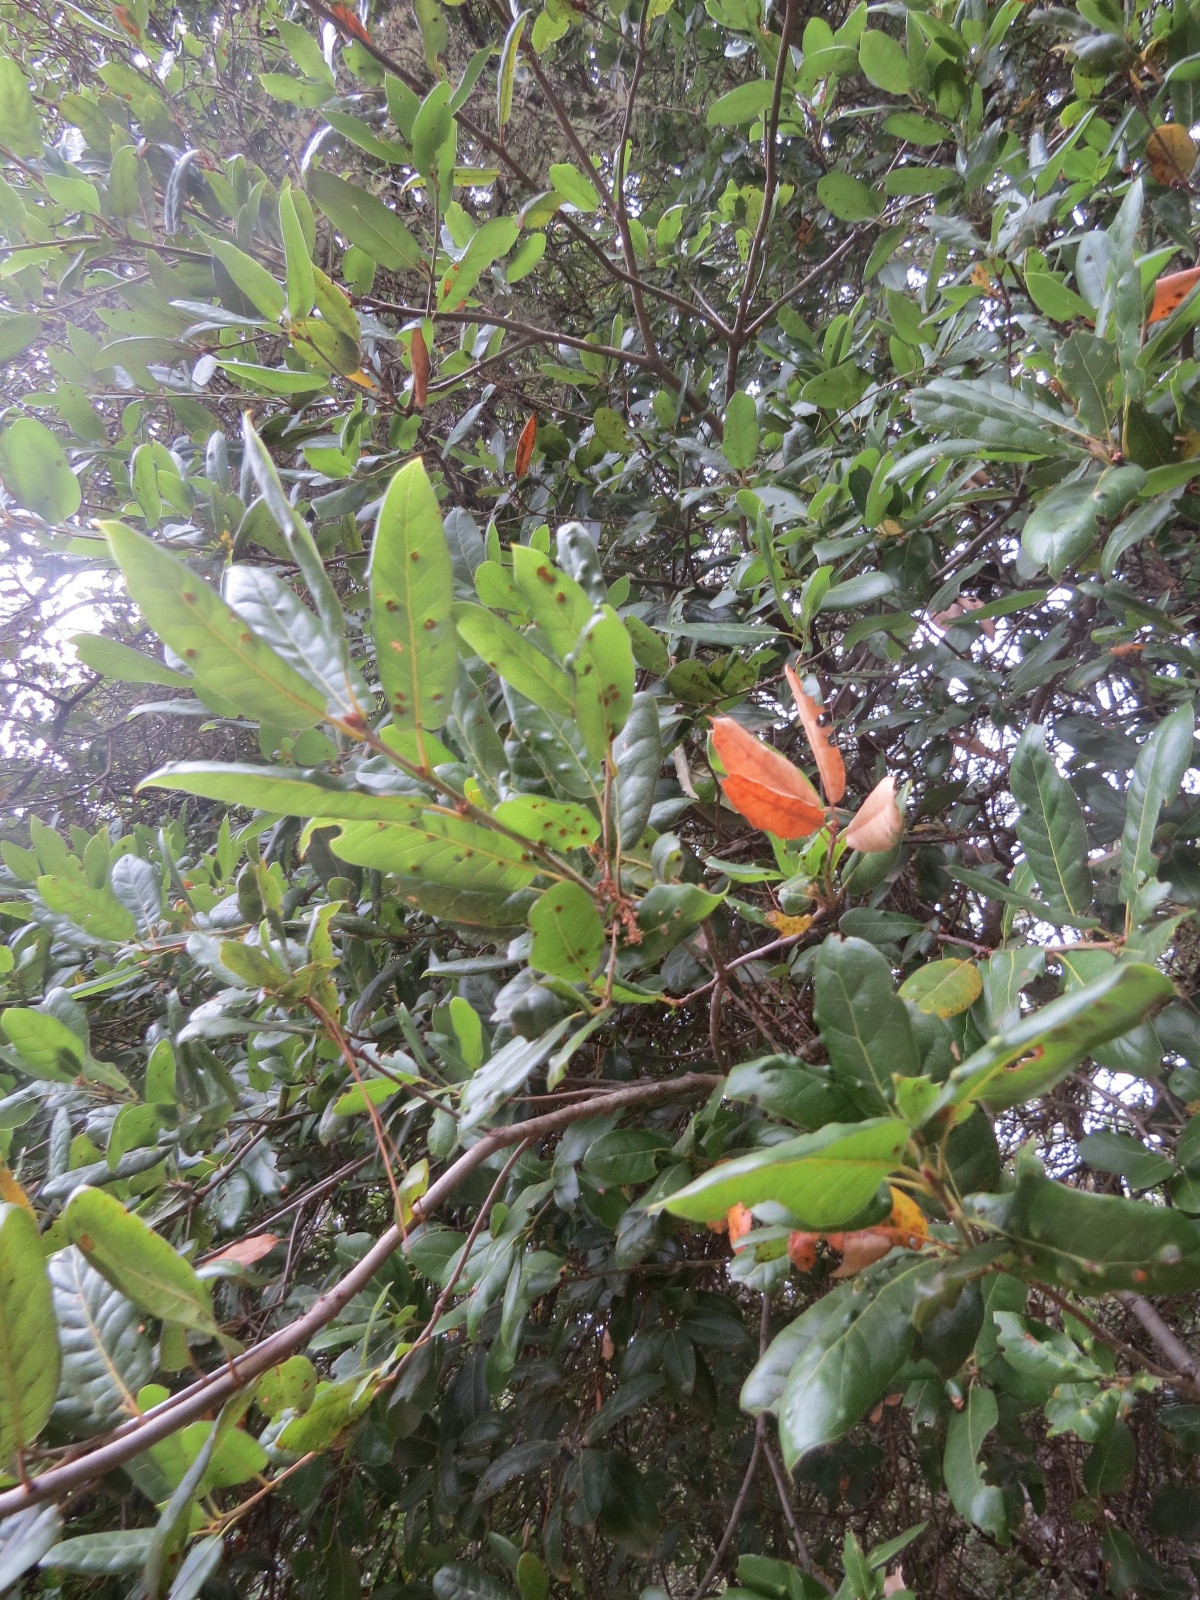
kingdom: Animalia
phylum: Arthropoda
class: Insecta
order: Hymenoptera
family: Cynipidae
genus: Callirhytis
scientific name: Callirhytis
